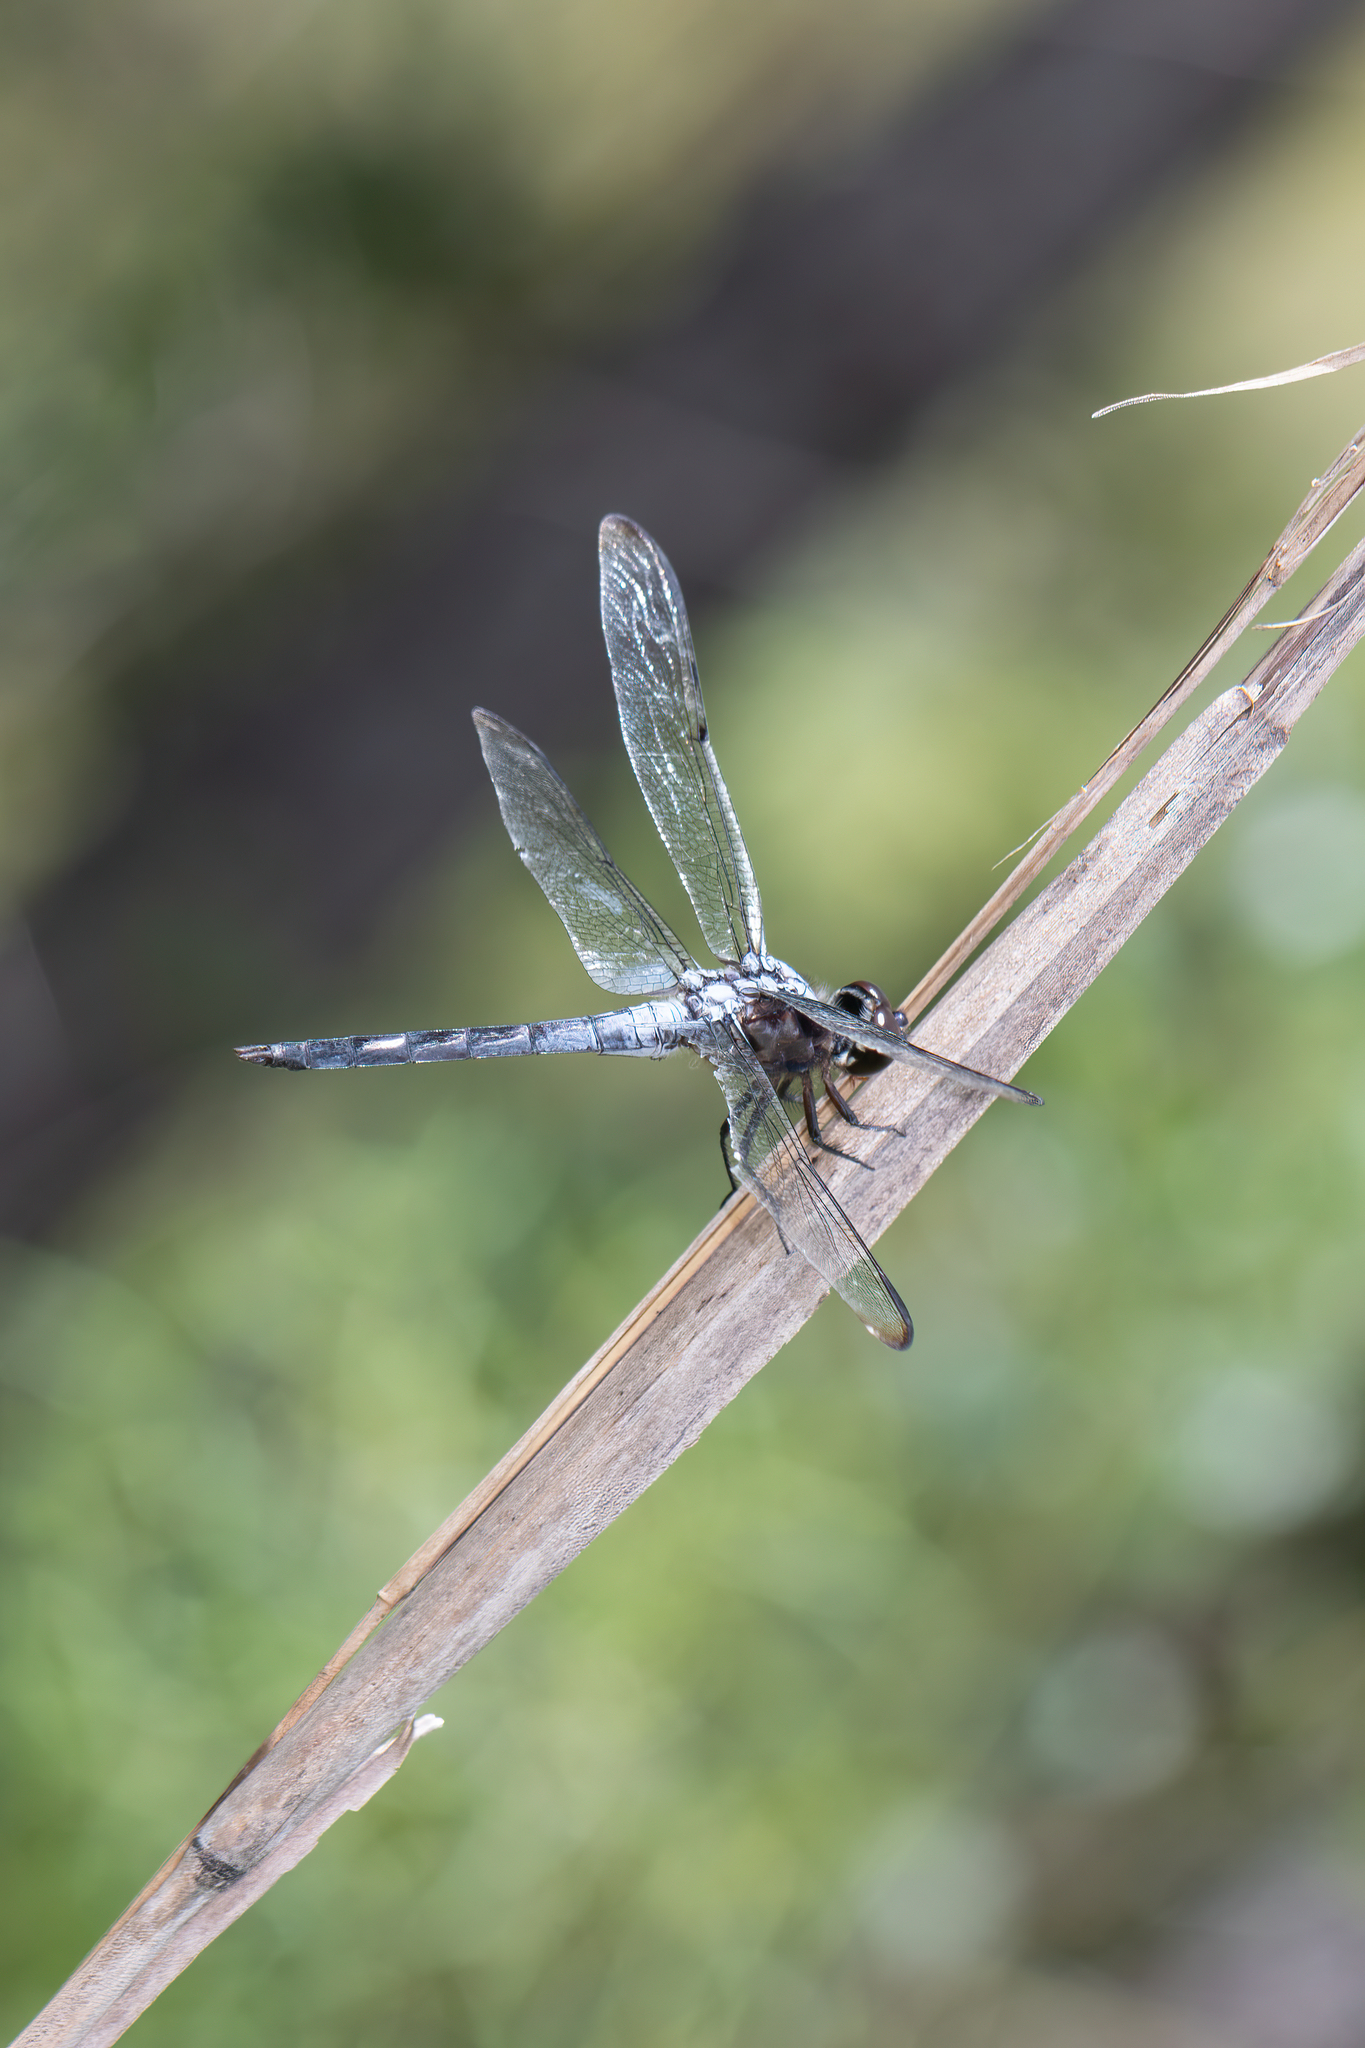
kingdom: Animalia
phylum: Arthropoda
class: Insecta
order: Odonata
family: Libellulidae
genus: Libellula
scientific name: Libellula axilena
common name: Bar-winged skimmer
